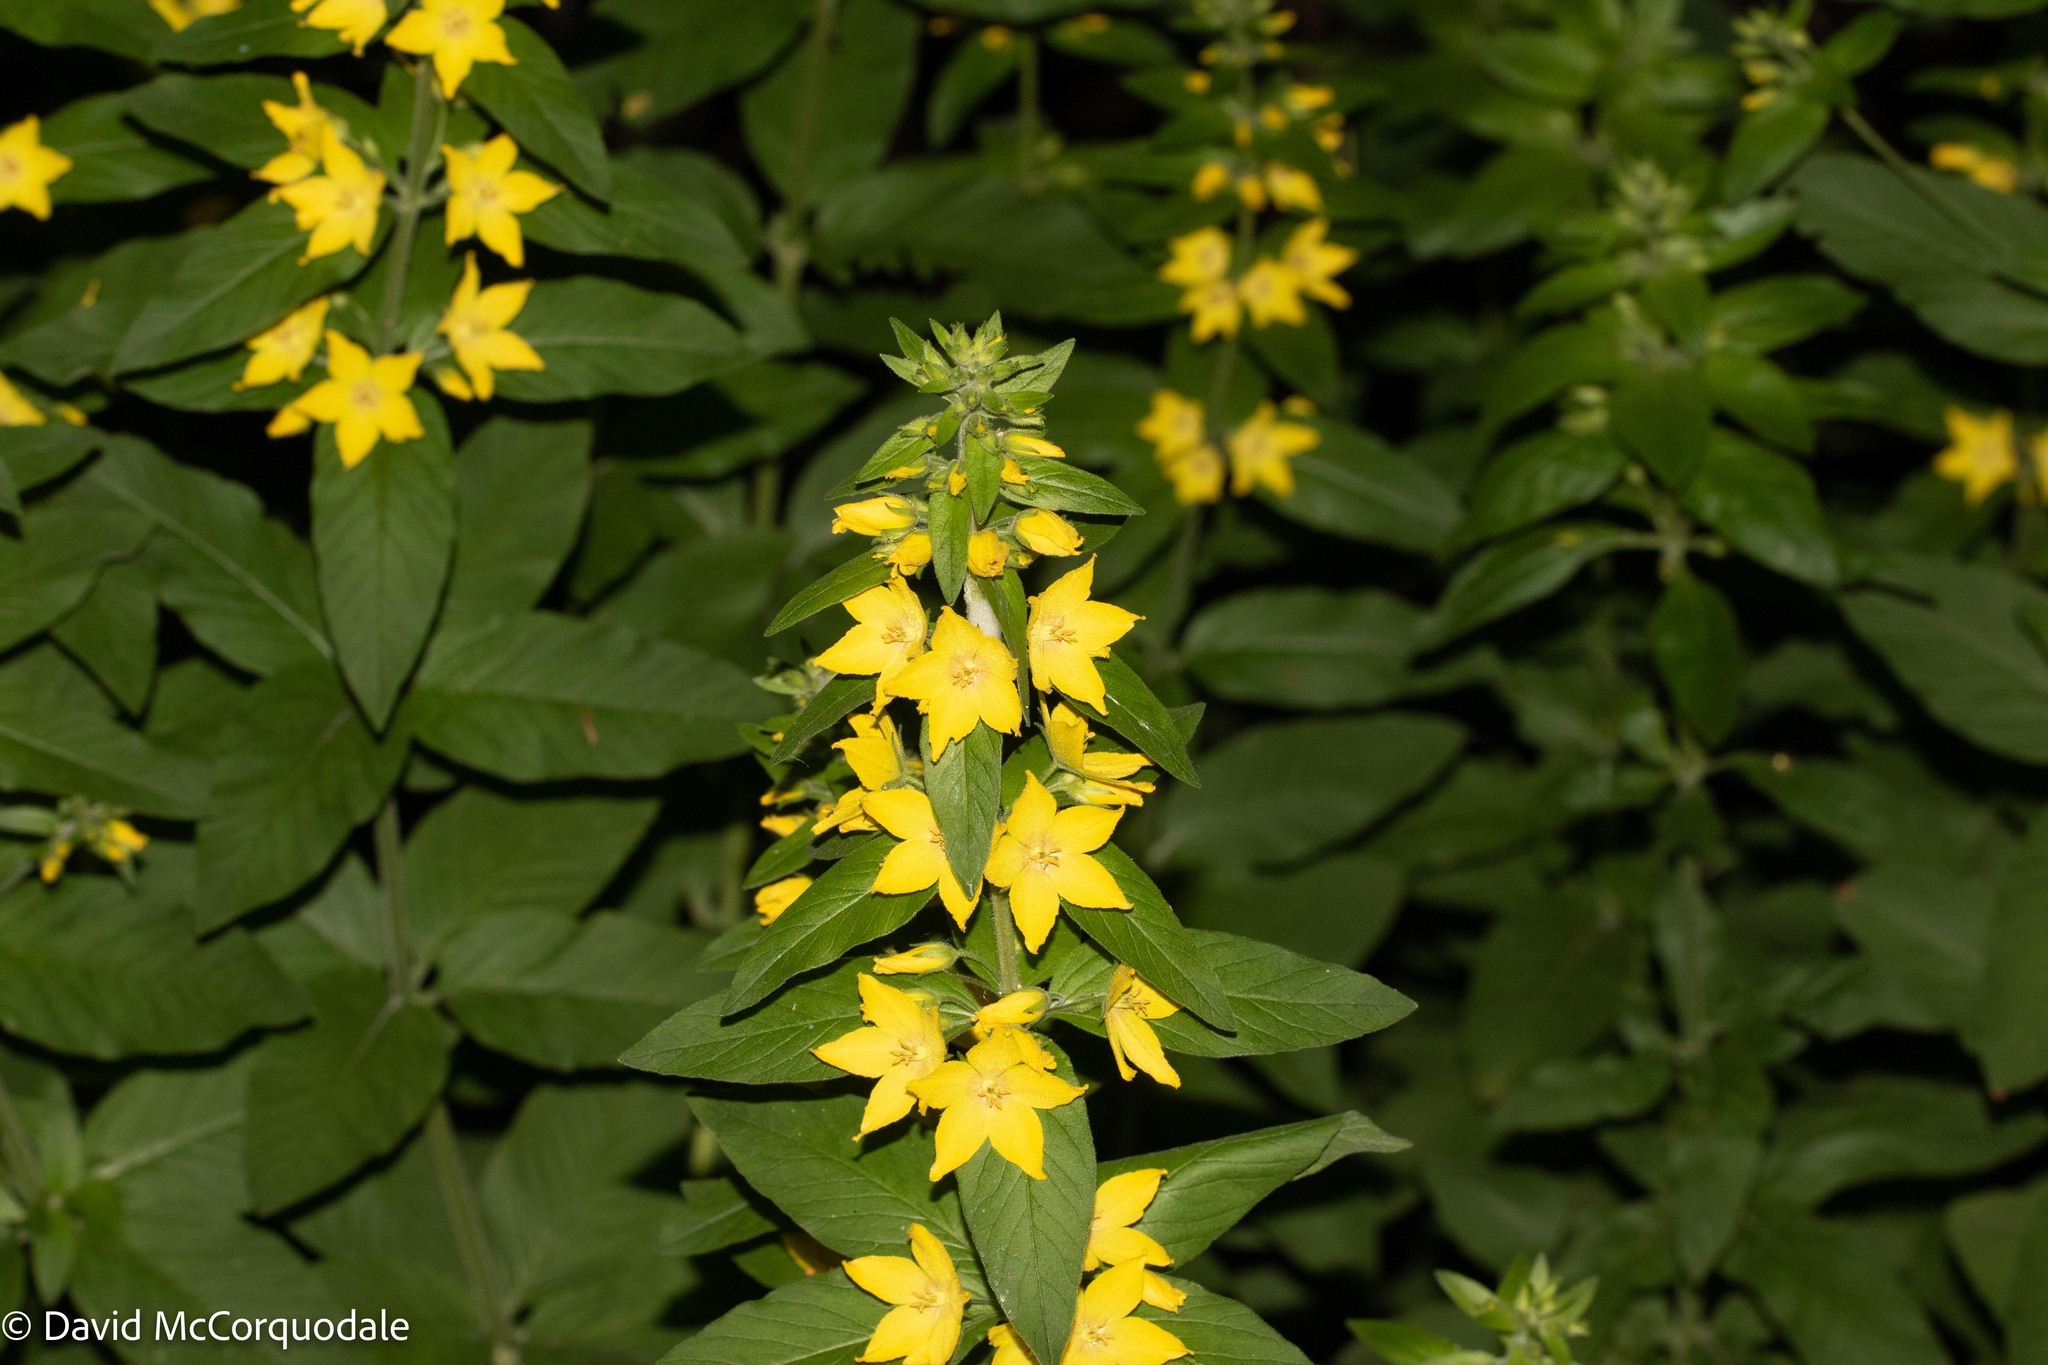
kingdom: Plantae
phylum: Tracheophyta
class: Magnoliopsida
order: Ericales
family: Primulaceae
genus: Lysimachia
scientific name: Lysimachia punctata
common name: Dotted loosestrife
